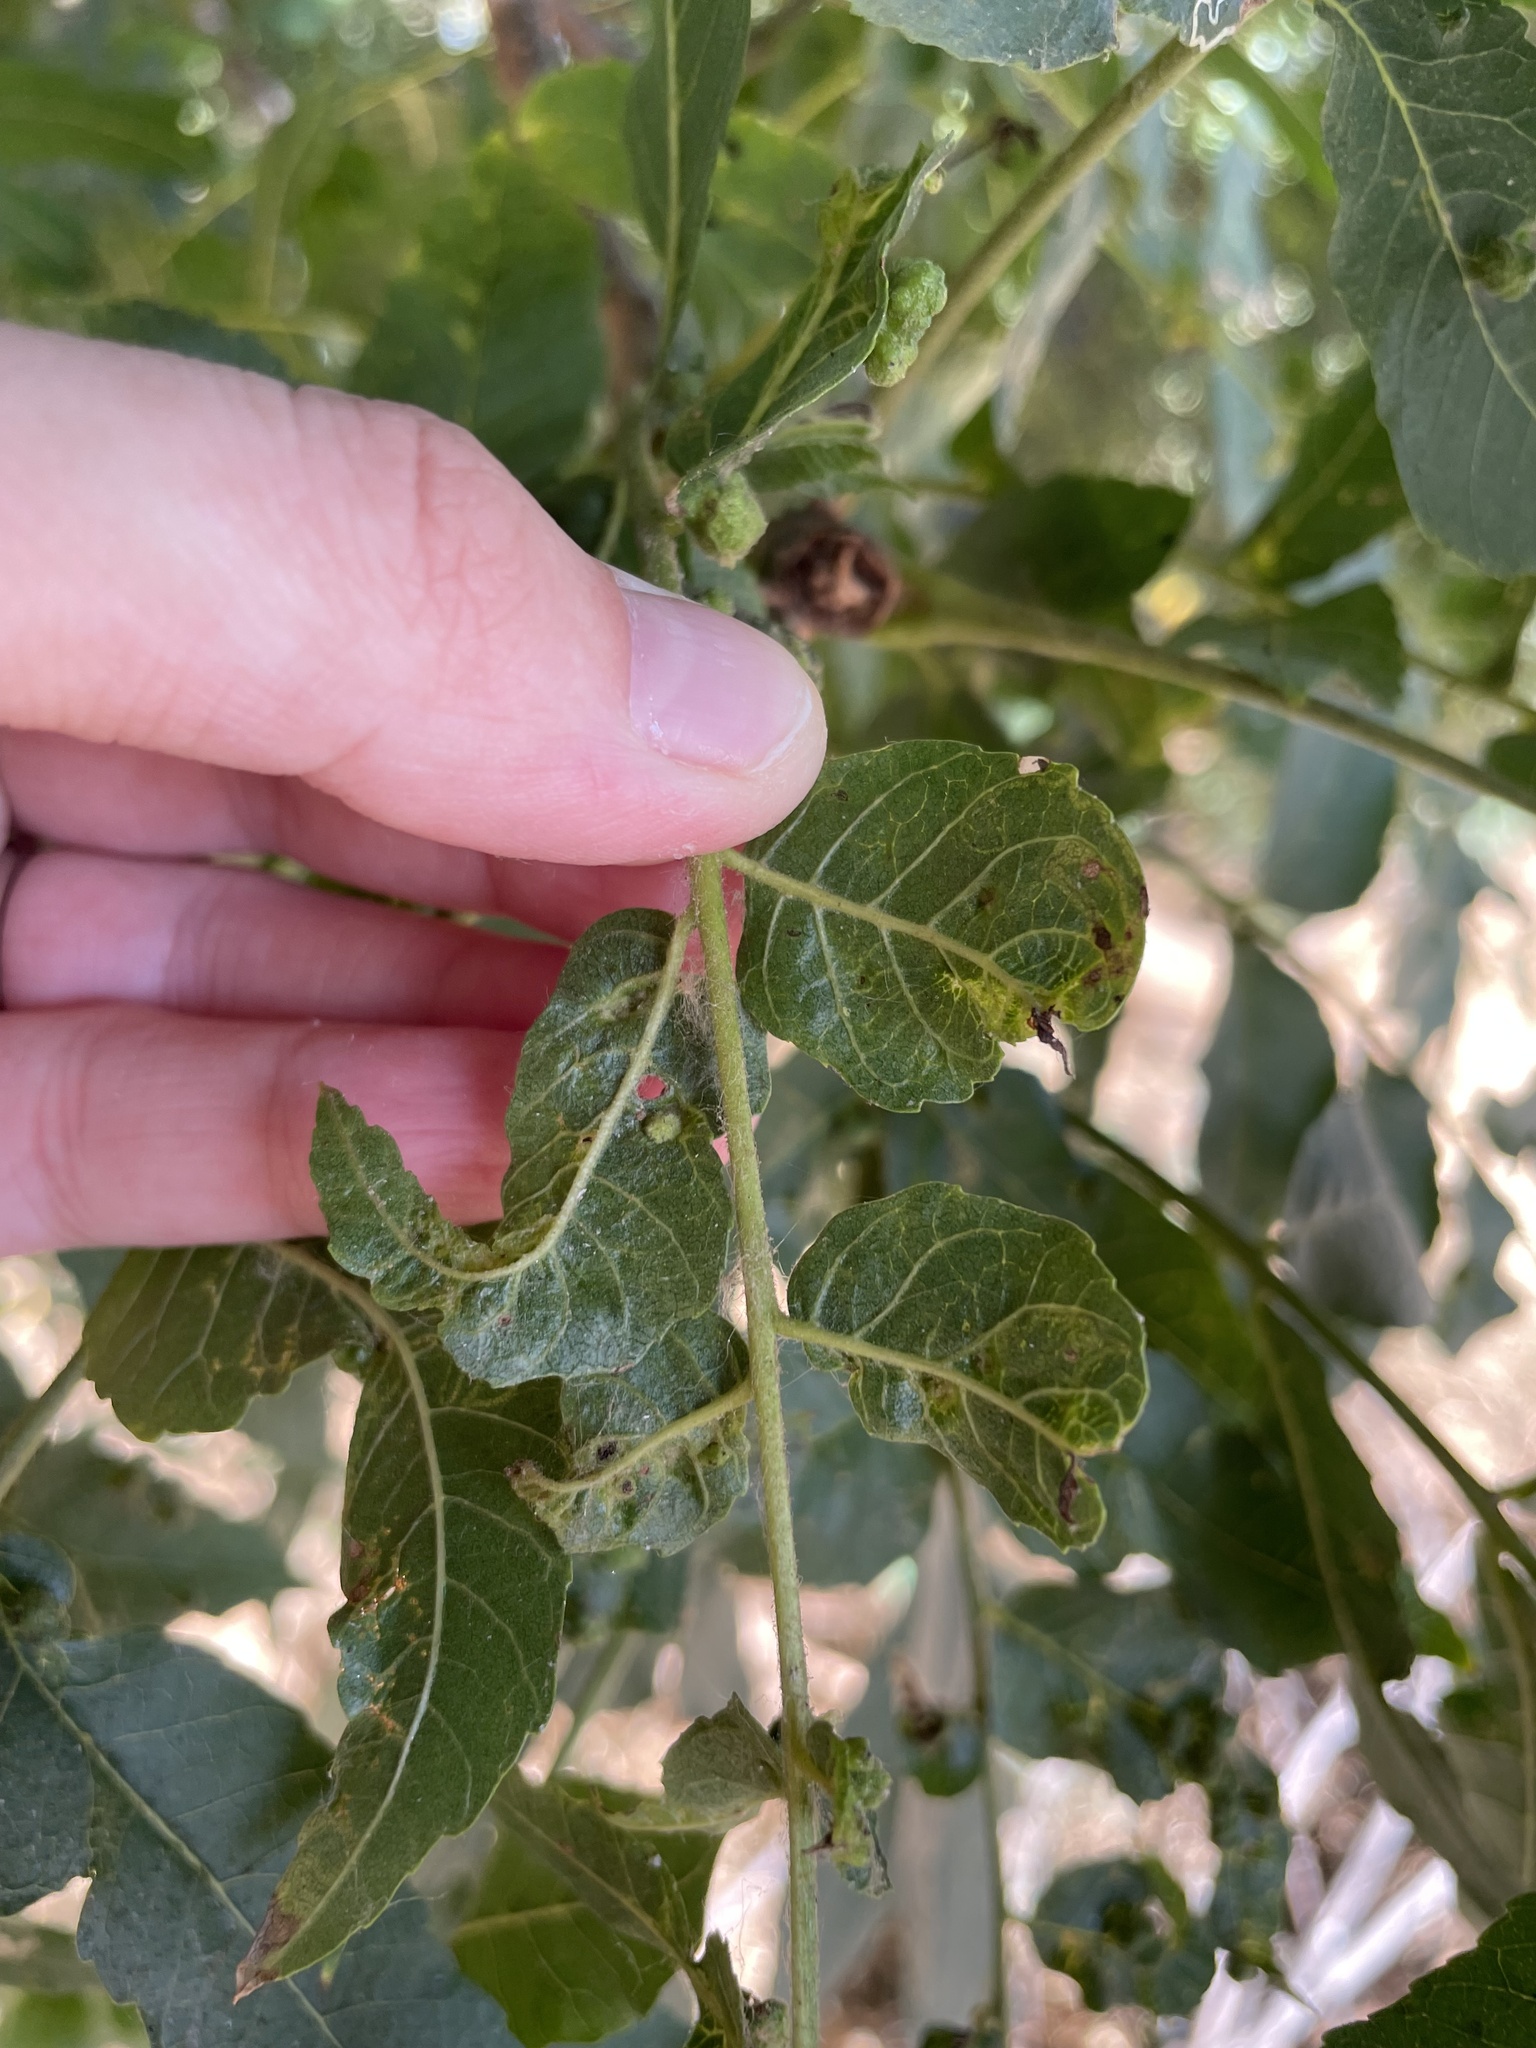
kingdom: Animalia
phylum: Arthropoda
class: Arachnida
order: Trombidiformes
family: Eriophyidae
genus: Aceria
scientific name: Aceria brachytarsus
